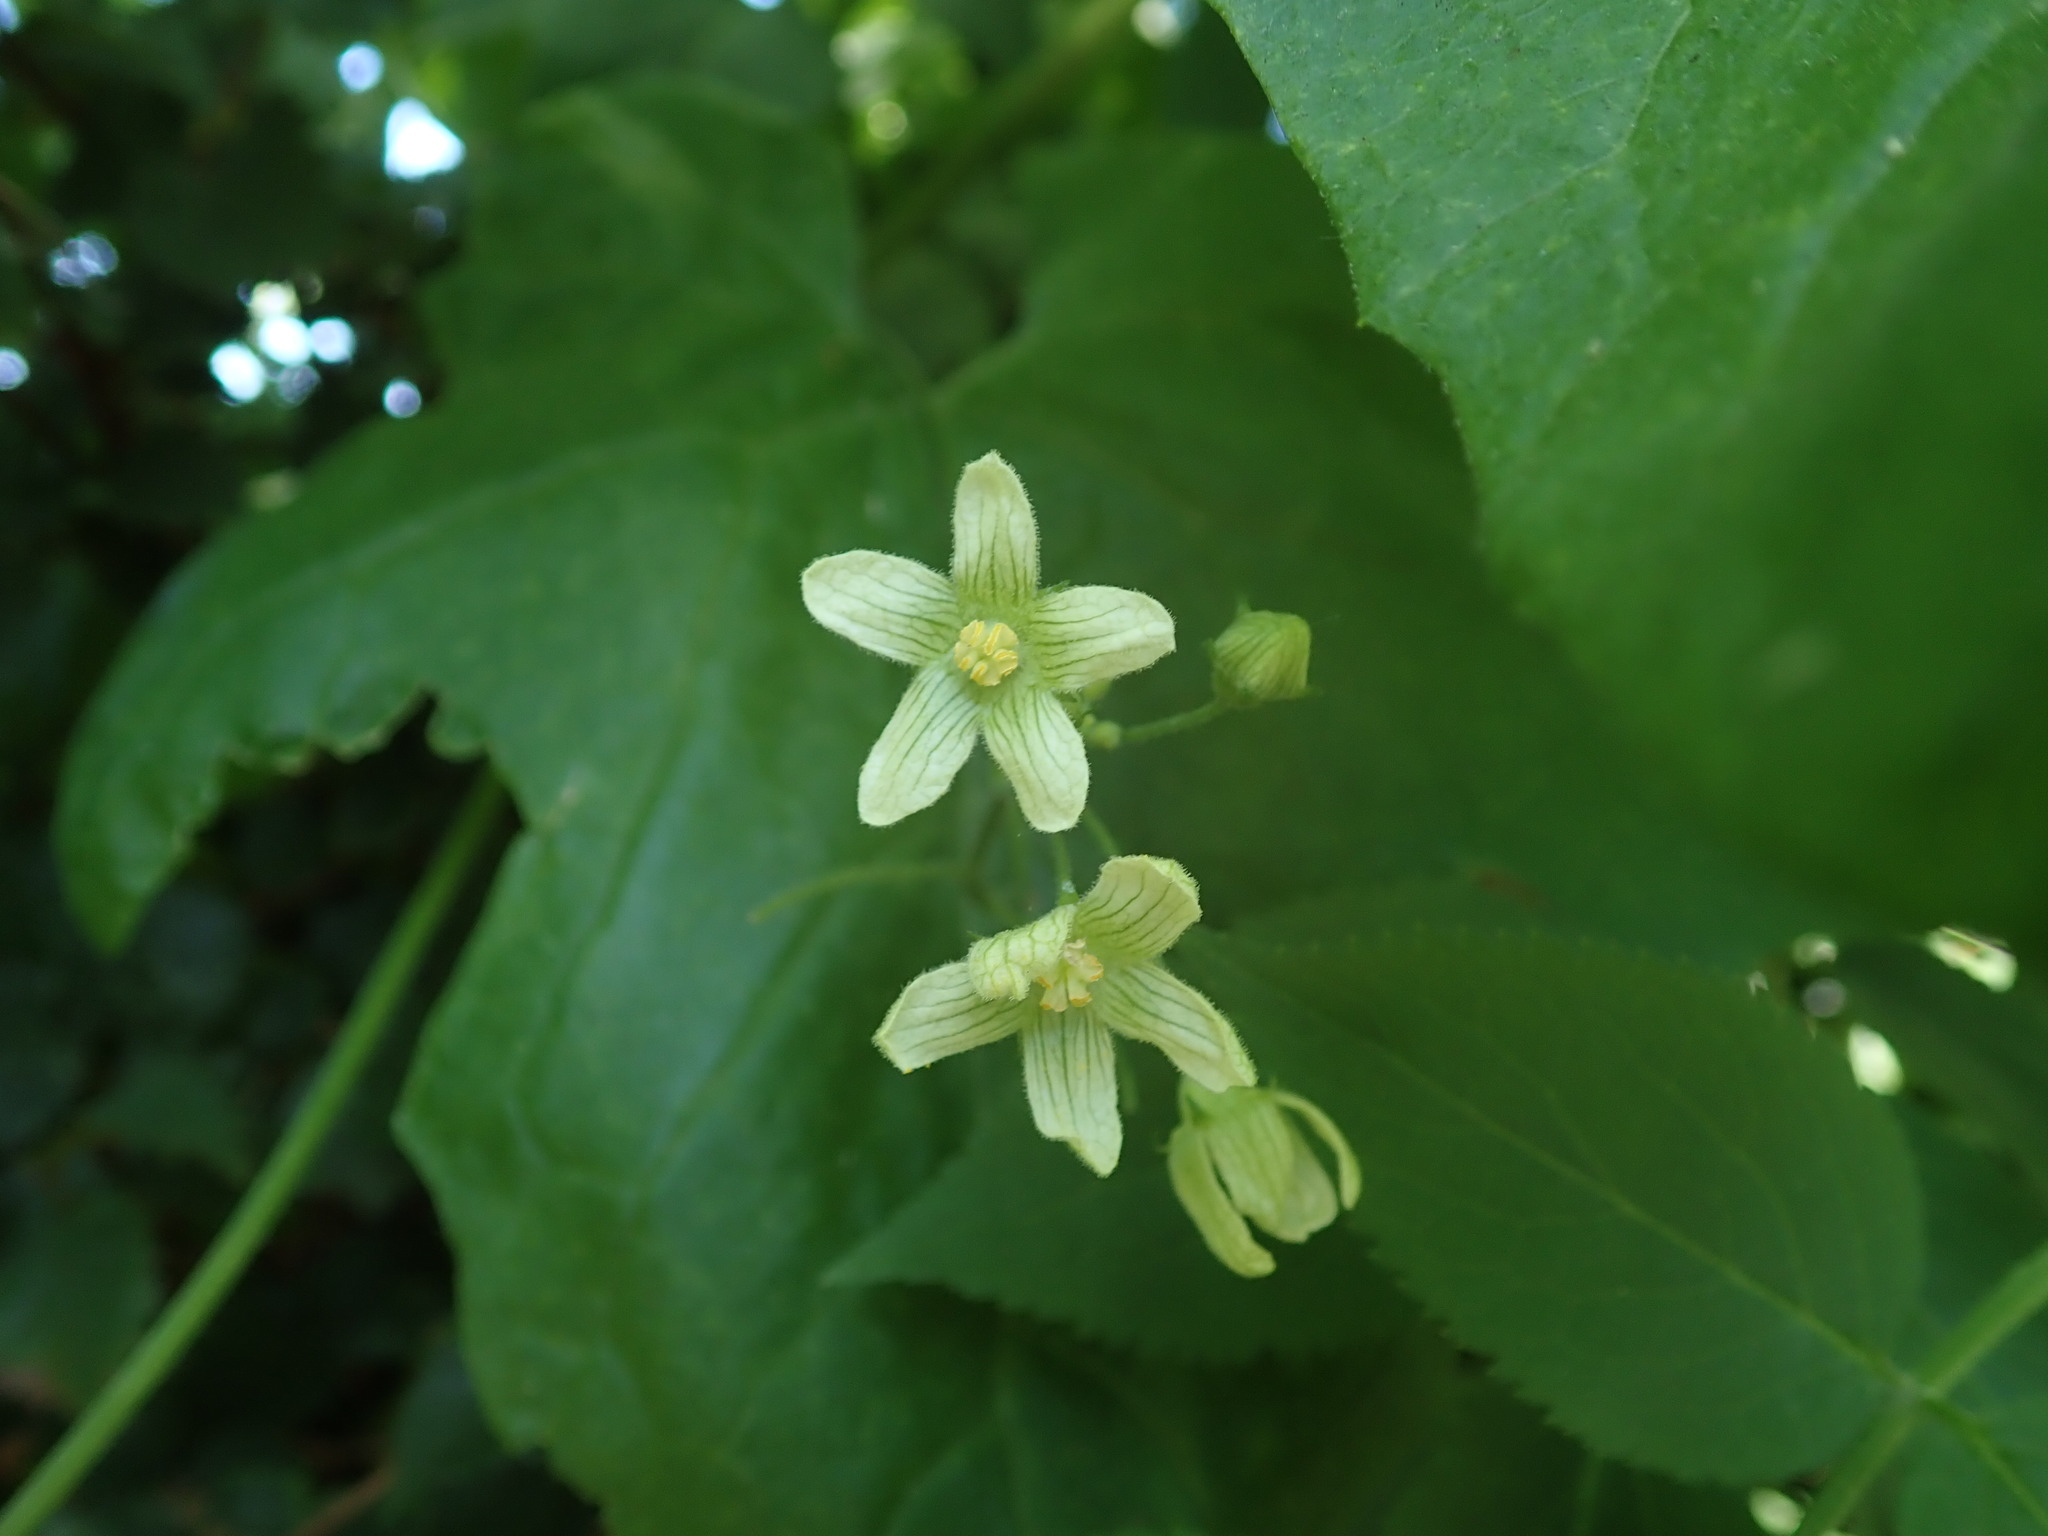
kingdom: Plantae
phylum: Tracheophyta
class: Magnoliopsida
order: Cucurbitales
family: Cucurbitaceae
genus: Bryonia
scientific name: Bryonia cretica
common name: Cretan bryony
